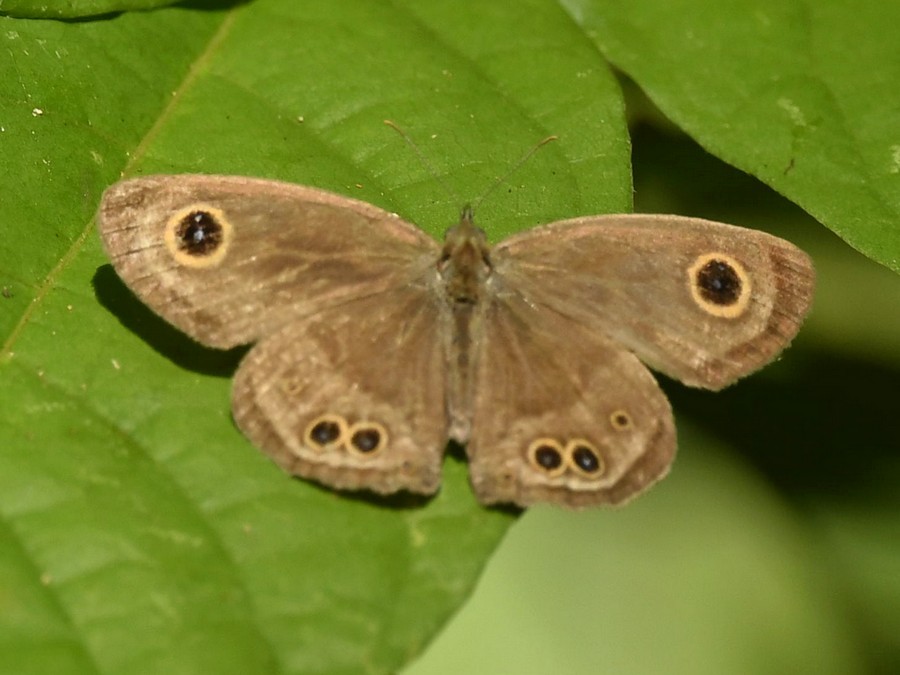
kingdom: Animalia
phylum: Arthropoda
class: Insecta
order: Lepidoptera
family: Nymphalidae
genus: Ypthima
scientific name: Ypthima baldus
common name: Common five-ring
